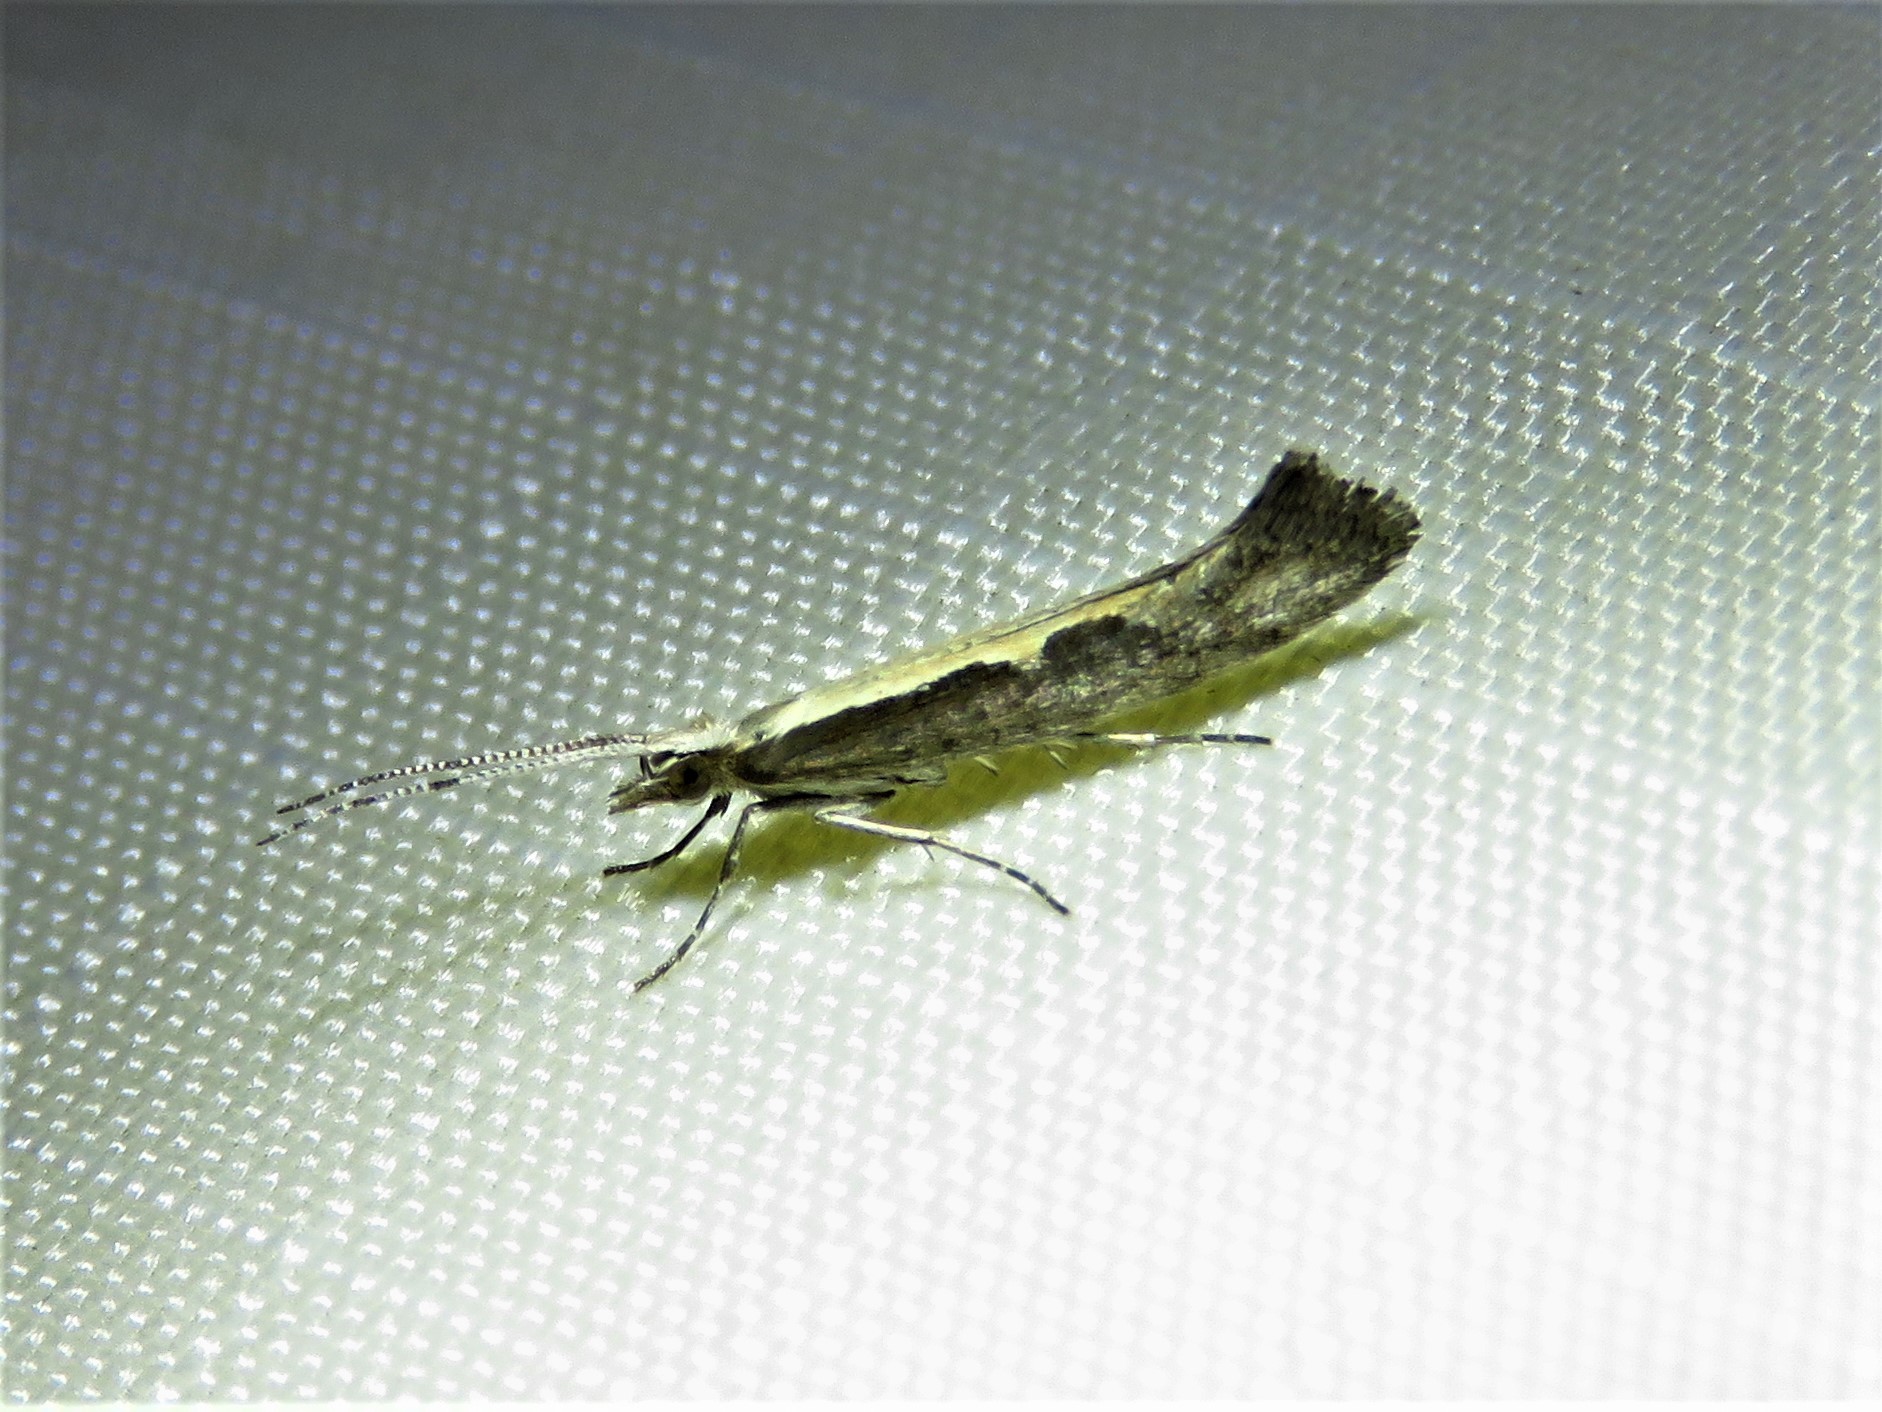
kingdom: Animalia
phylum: Arthropoda
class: Insecta
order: Lepidoptera
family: Plutellidae
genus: Plutella
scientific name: Plutella xylostella
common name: Diamond-back moth
